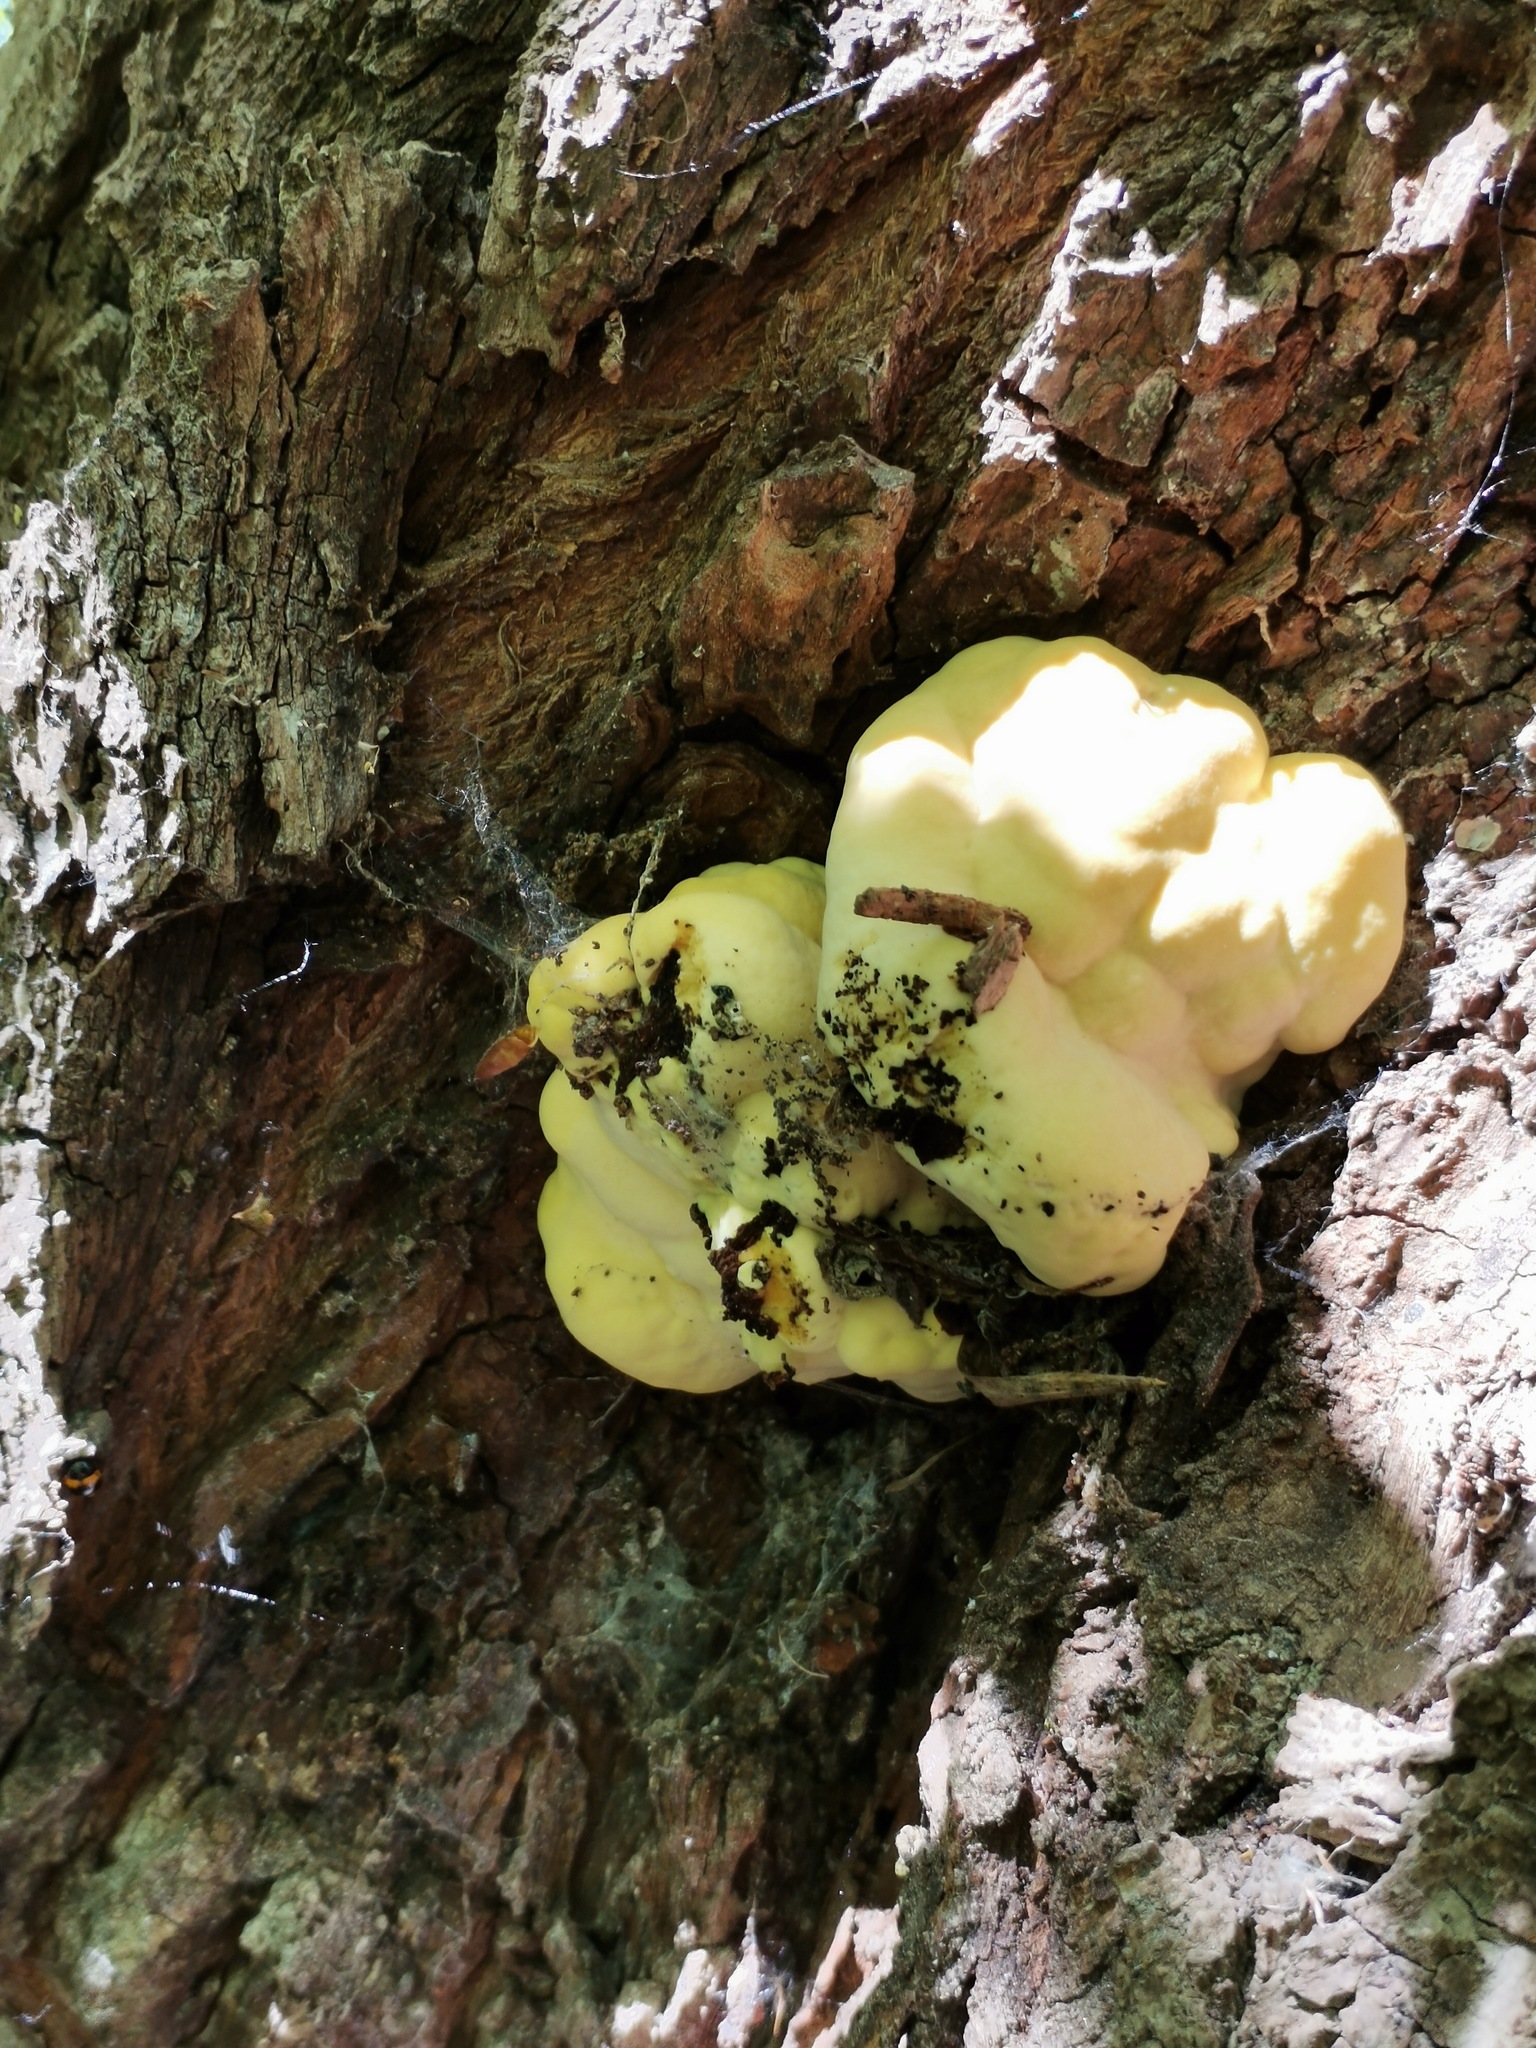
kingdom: Fungi
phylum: Basidiomycota
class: Agaricomycetes
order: Polyporales
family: Laetiporaceae
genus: Laetiporus
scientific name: Laetiporus sulphureus
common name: Chicken of the woods
